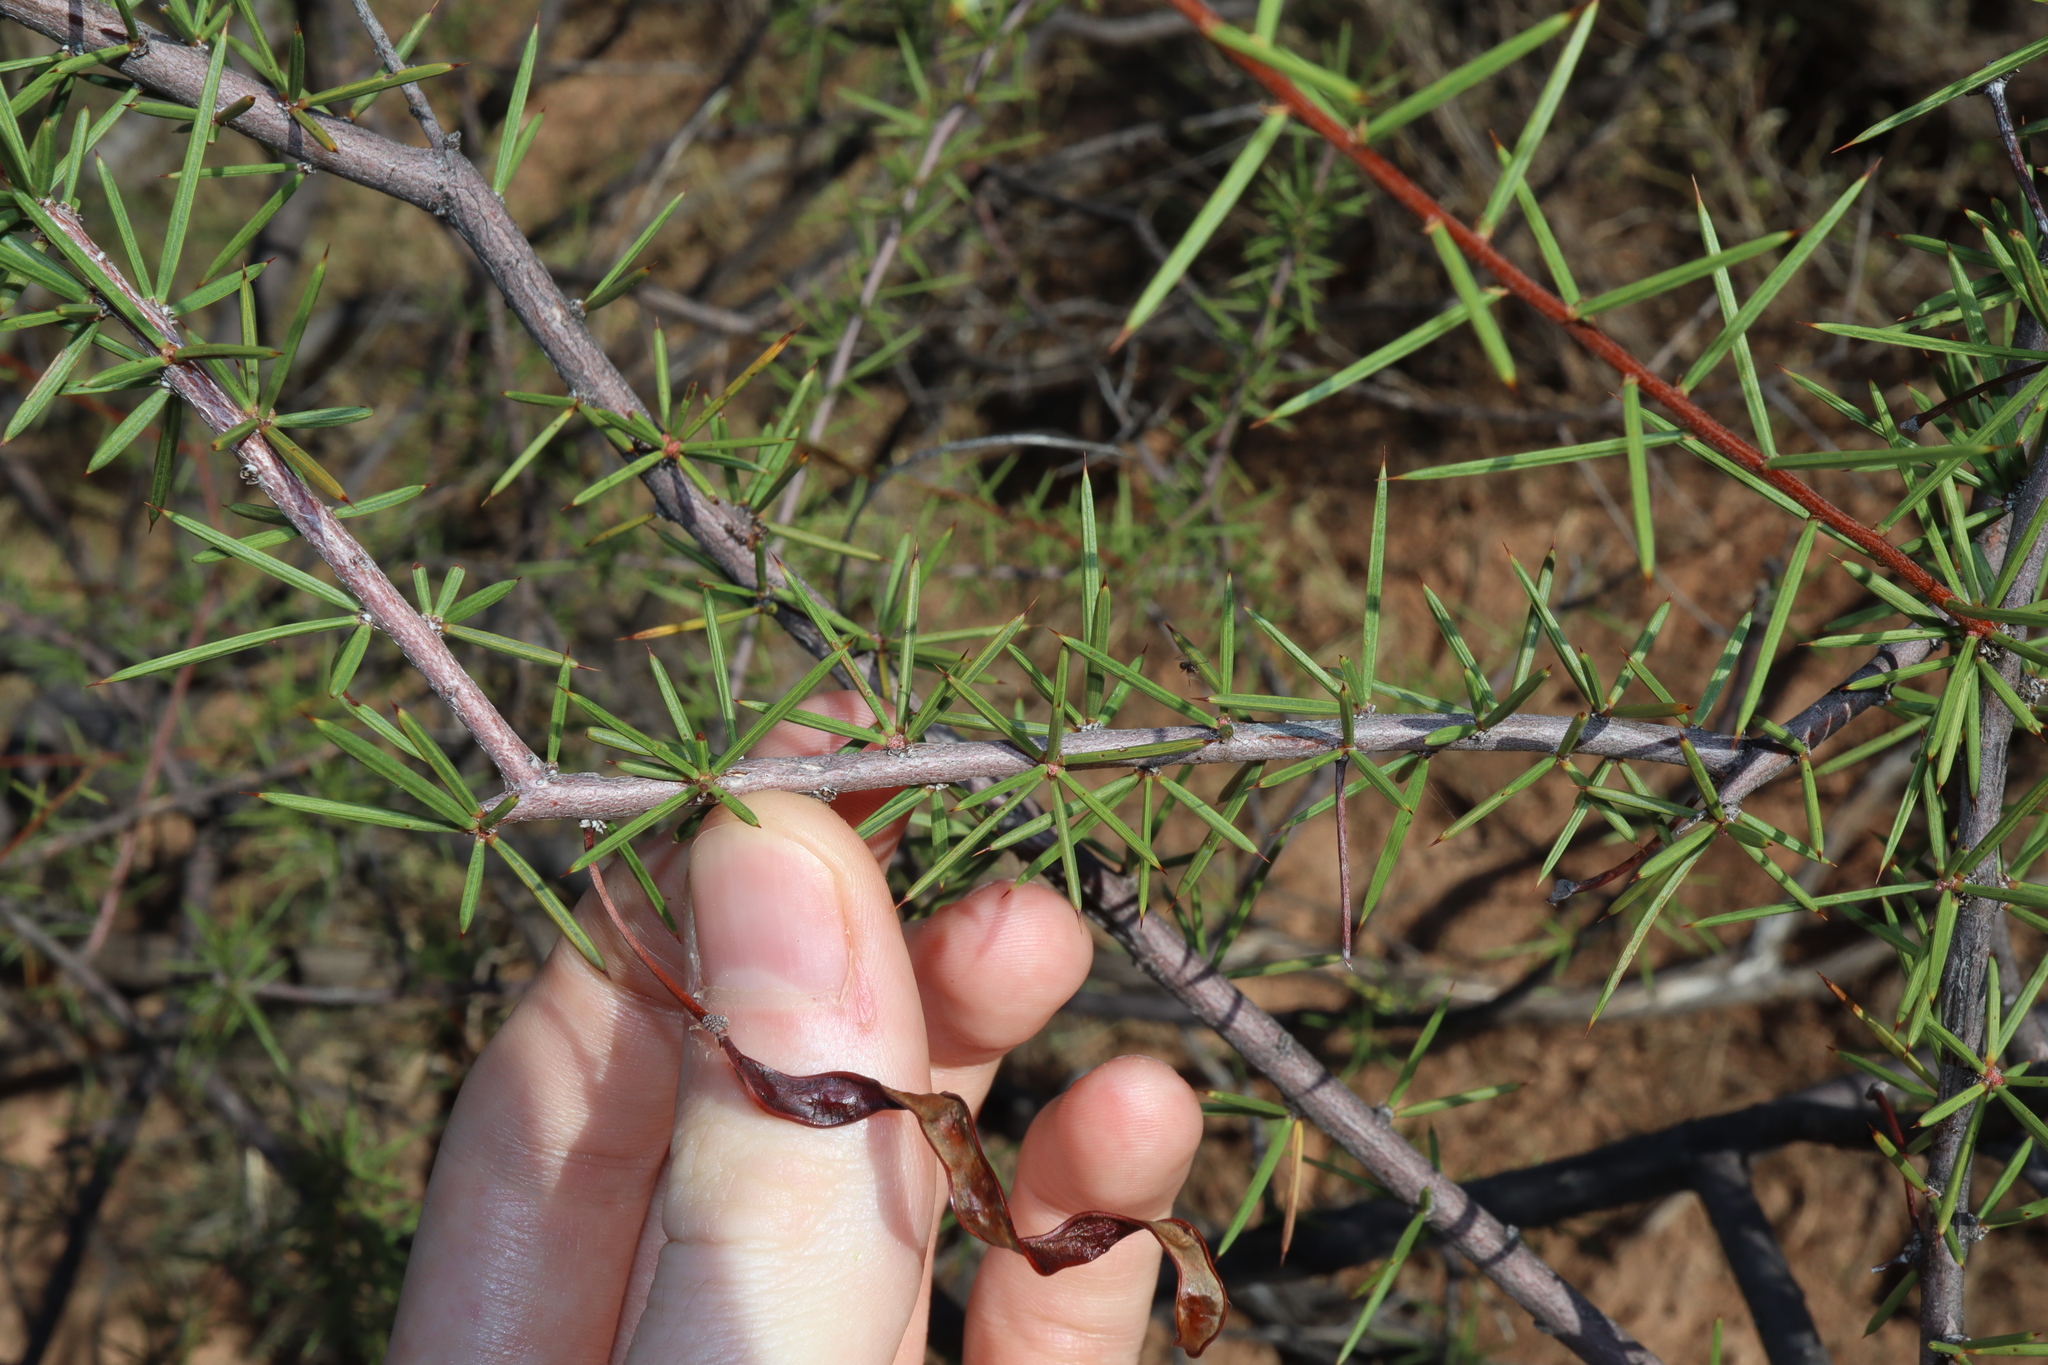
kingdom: Plantae
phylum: Tracheophyta
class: Magnoliopsida
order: Fabales
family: Fabaceae
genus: Acacia
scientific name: Acacia tetragonophylla
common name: Dead finish
